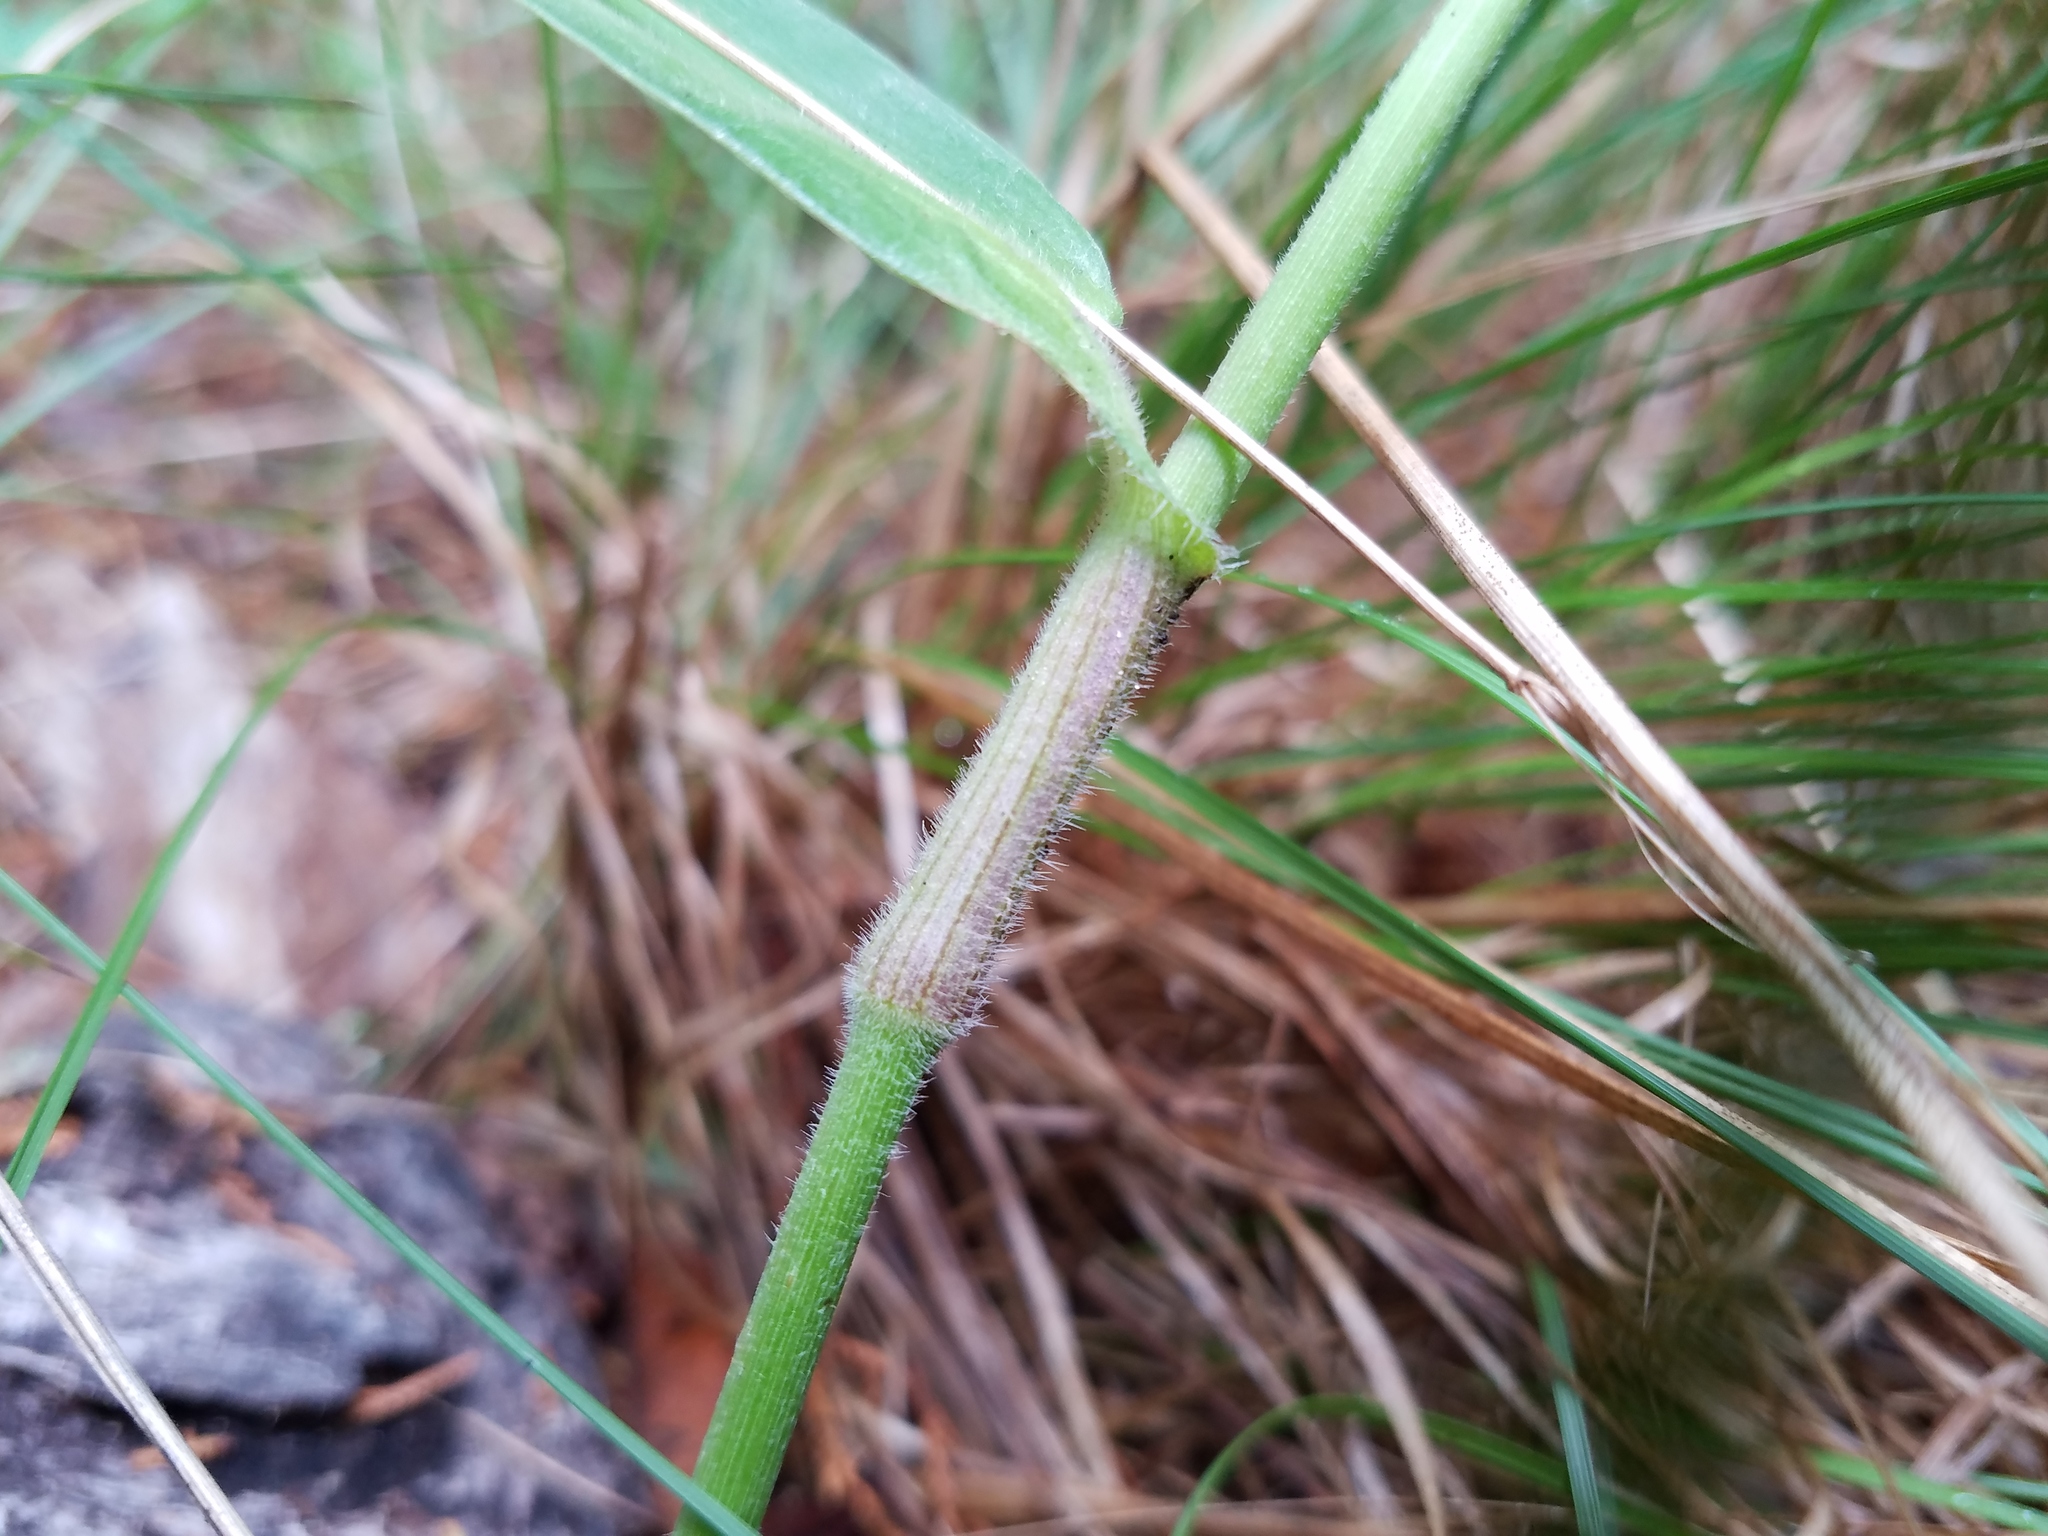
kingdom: Plantae
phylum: Tracheophyta
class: Liliopsida
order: Commelinales
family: Commelinaceae
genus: Commelina
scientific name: Commelina erecta
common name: Blousel blommetjie
